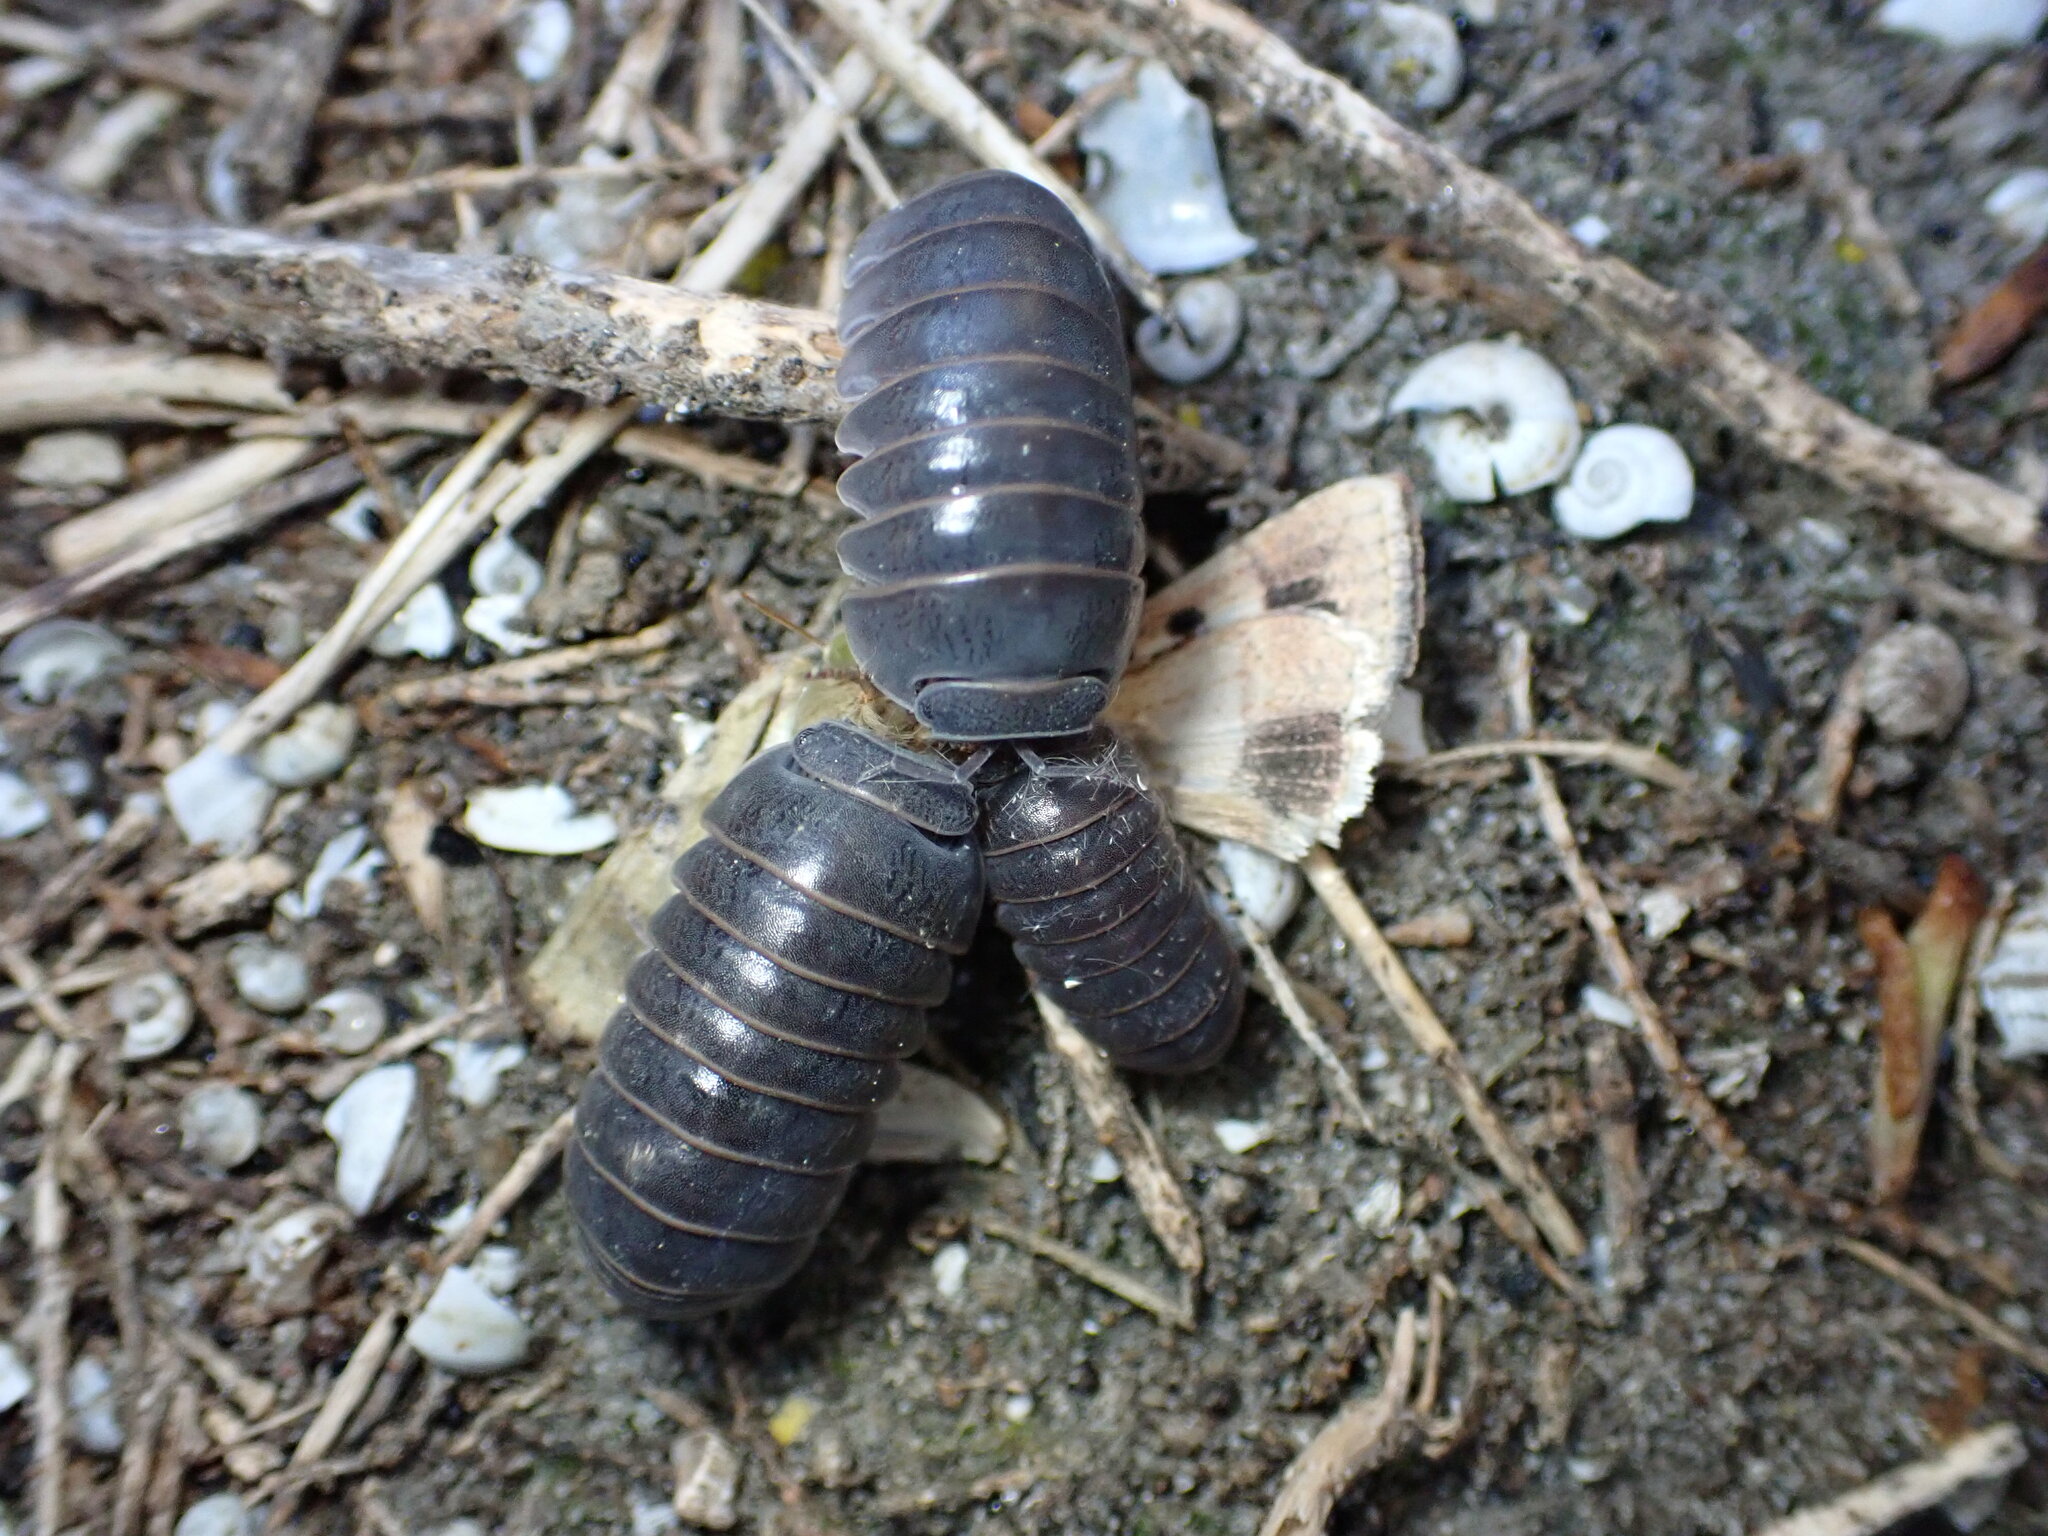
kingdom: Animalia
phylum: Arthropoda
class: Malacostraca
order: Isopoda
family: Armadillidae
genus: Armadillo
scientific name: Armadillo officinalis
